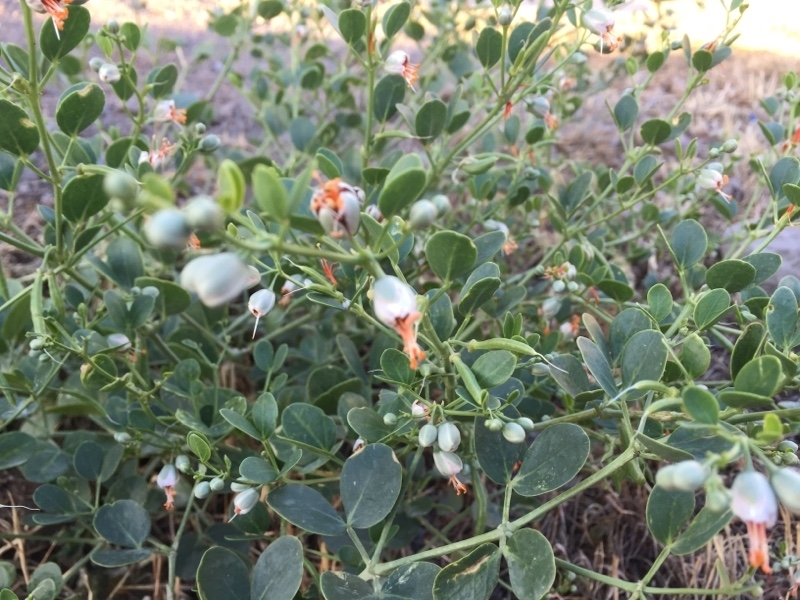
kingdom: Plantae
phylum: Tracheophyta
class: Magnoliopsida
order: Zygophyllales
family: Zygophyllaceae
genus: Zygophyllum
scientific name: Zygophyllum fabago
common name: Syrian beancaper
